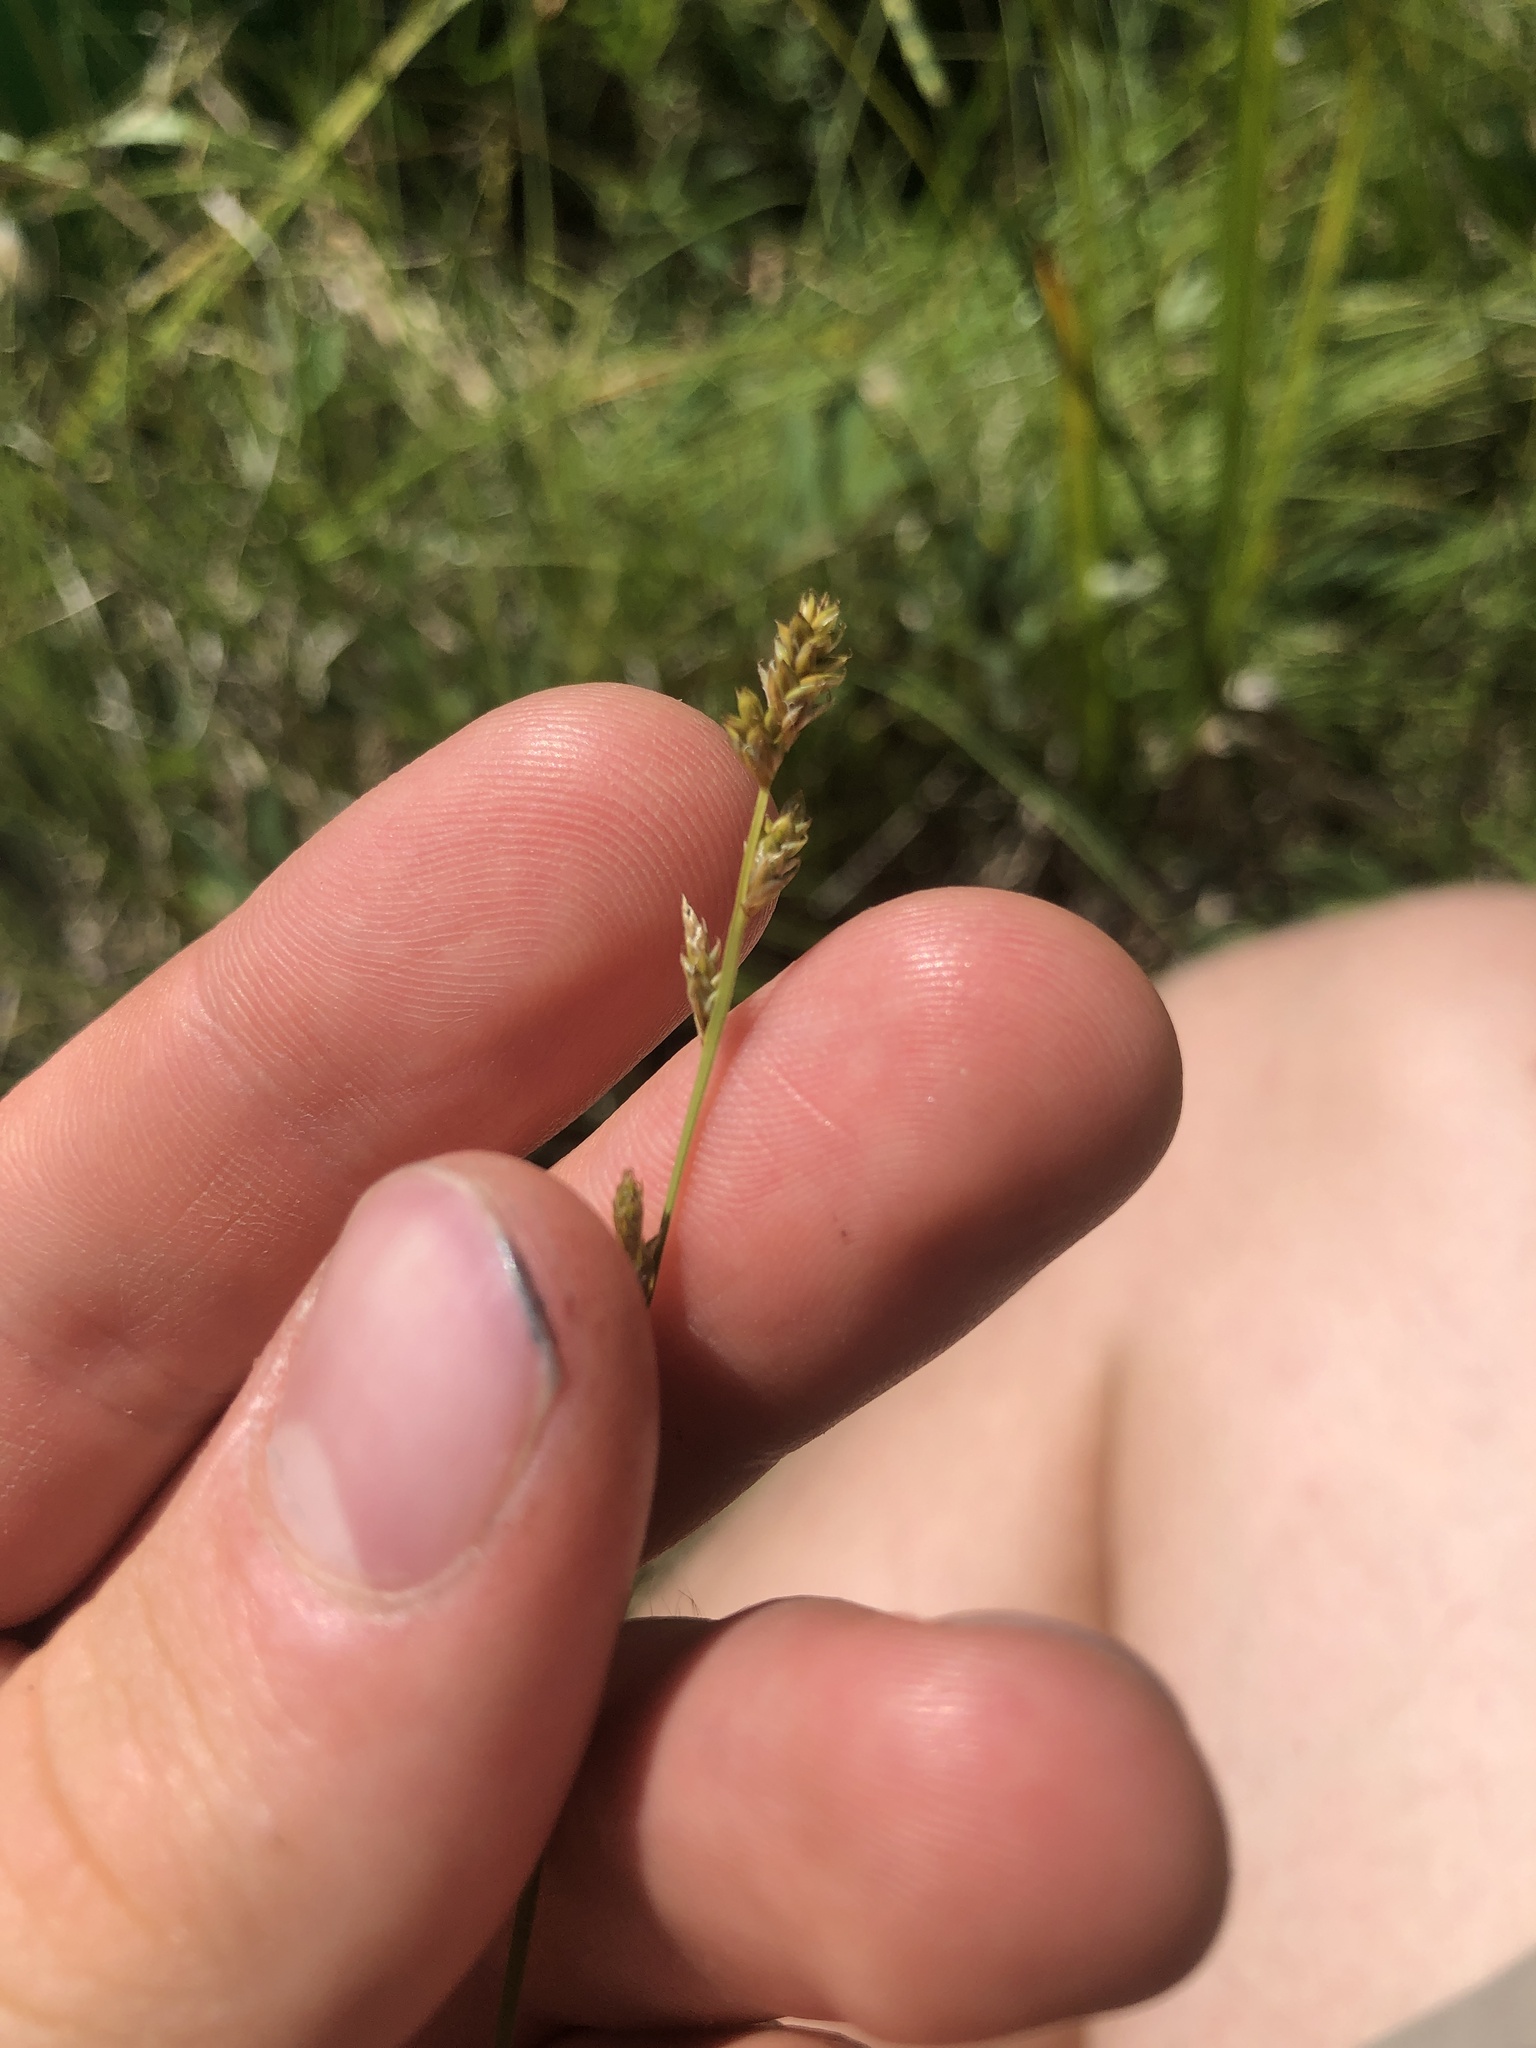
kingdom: Plantae
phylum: Tracheophyta
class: Liliopsida
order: Poales
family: Cyperaceae
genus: Carex
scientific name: Carex canescens
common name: White sedge
